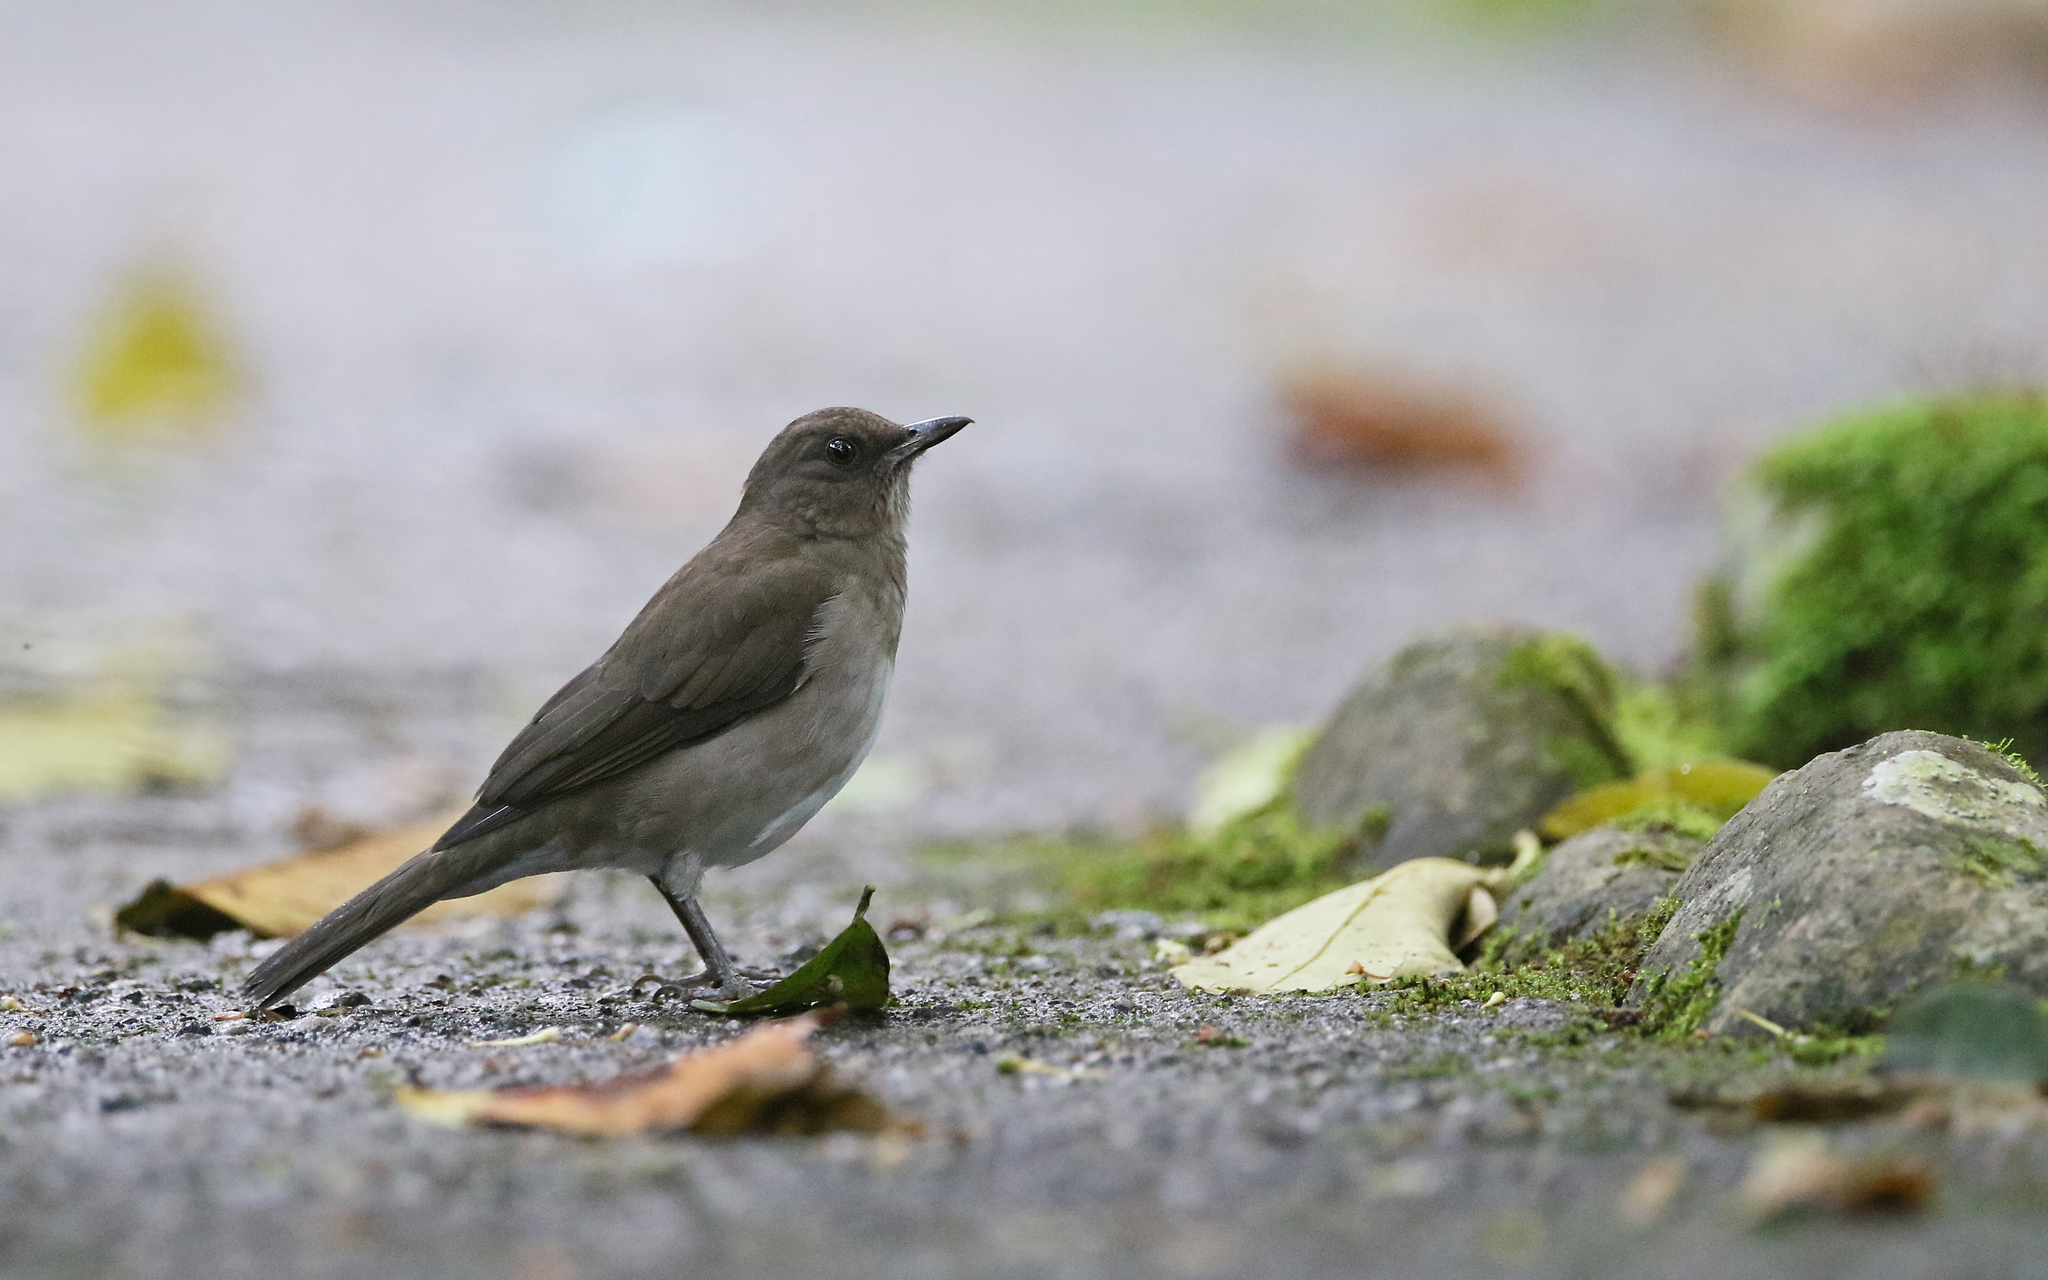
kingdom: Animalia
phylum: Chordata
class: Aves
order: Passeriformes
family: Turdidae
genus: Turdus
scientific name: Turdus ignobilis
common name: Black-billed thrush
